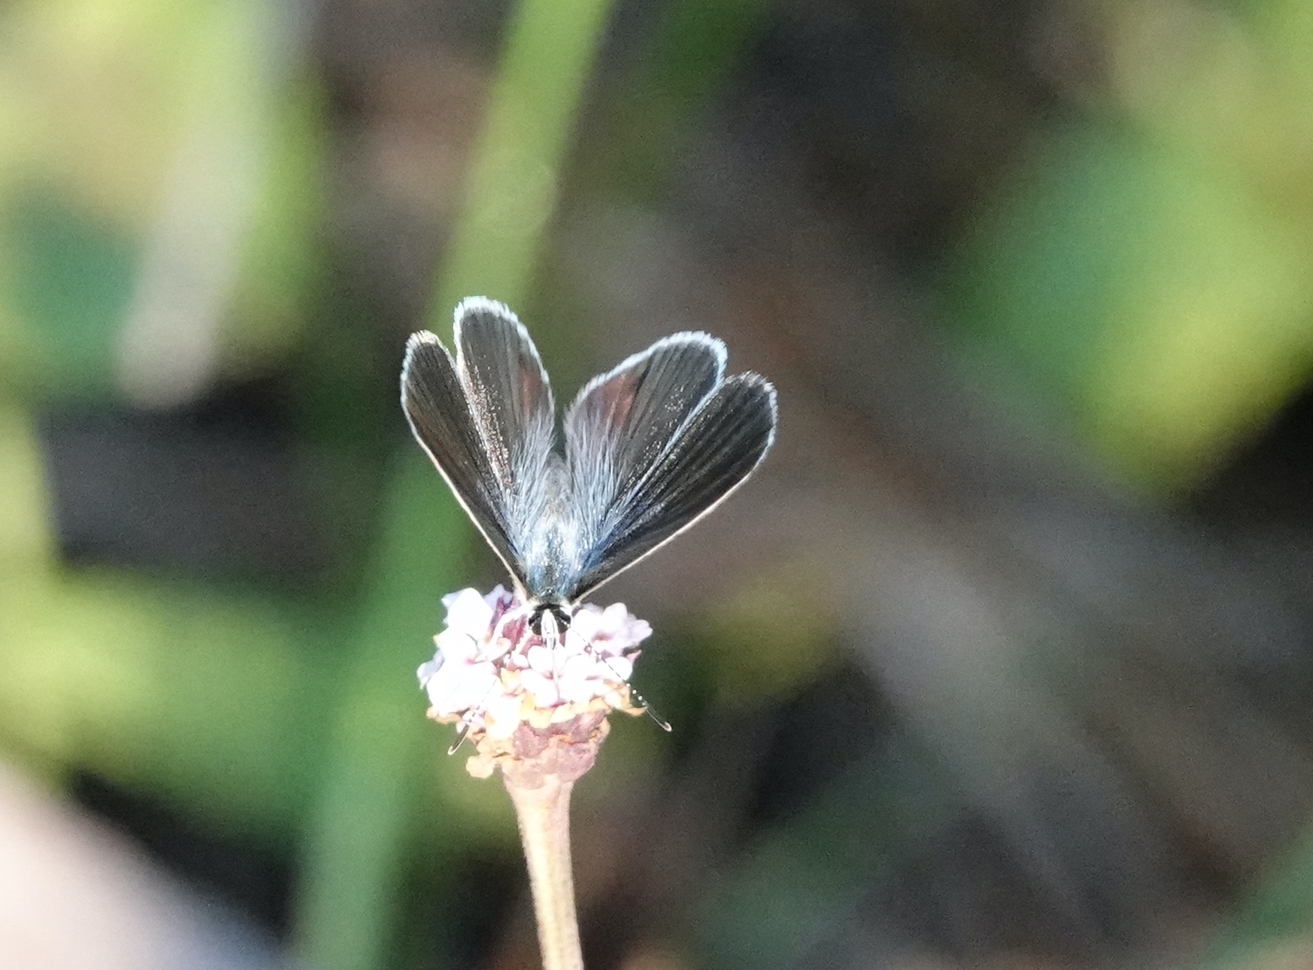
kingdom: Animalia
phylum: Arthropoda
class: Insecta
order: Lepidoptera
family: Lycaenidae
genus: Hemiargus
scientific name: Hemiargus ceraunus
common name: Ceraunus blue
